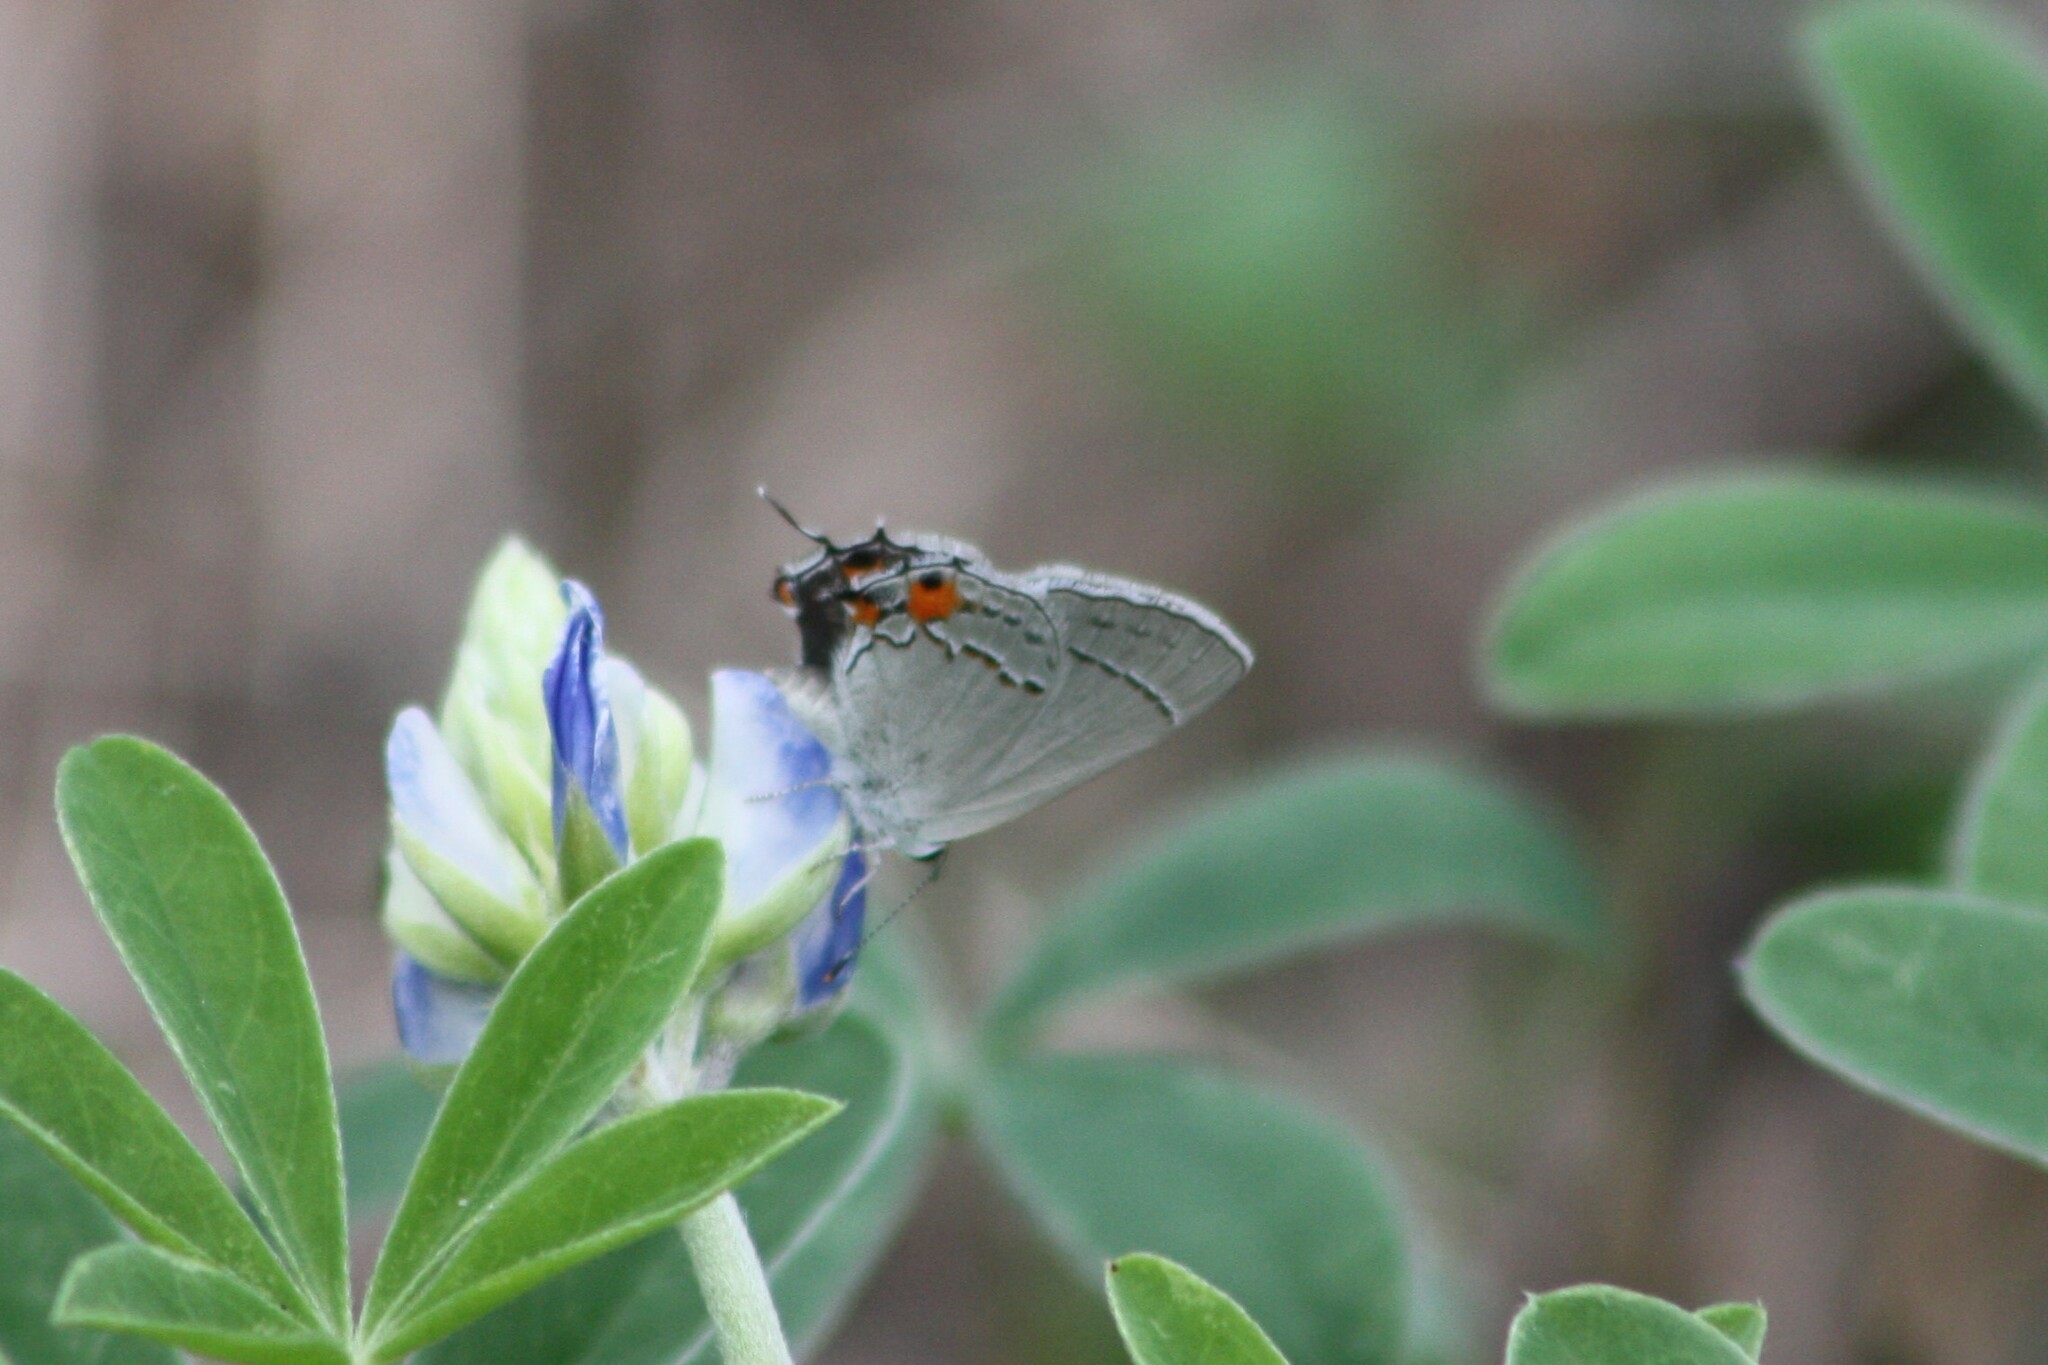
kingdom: Animalia
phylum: Arthropoda
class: Insecta
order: Lepidoptera
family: Lycaenidae
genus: Strymon
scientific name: Strymon melinus
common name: Gray hairstreak
